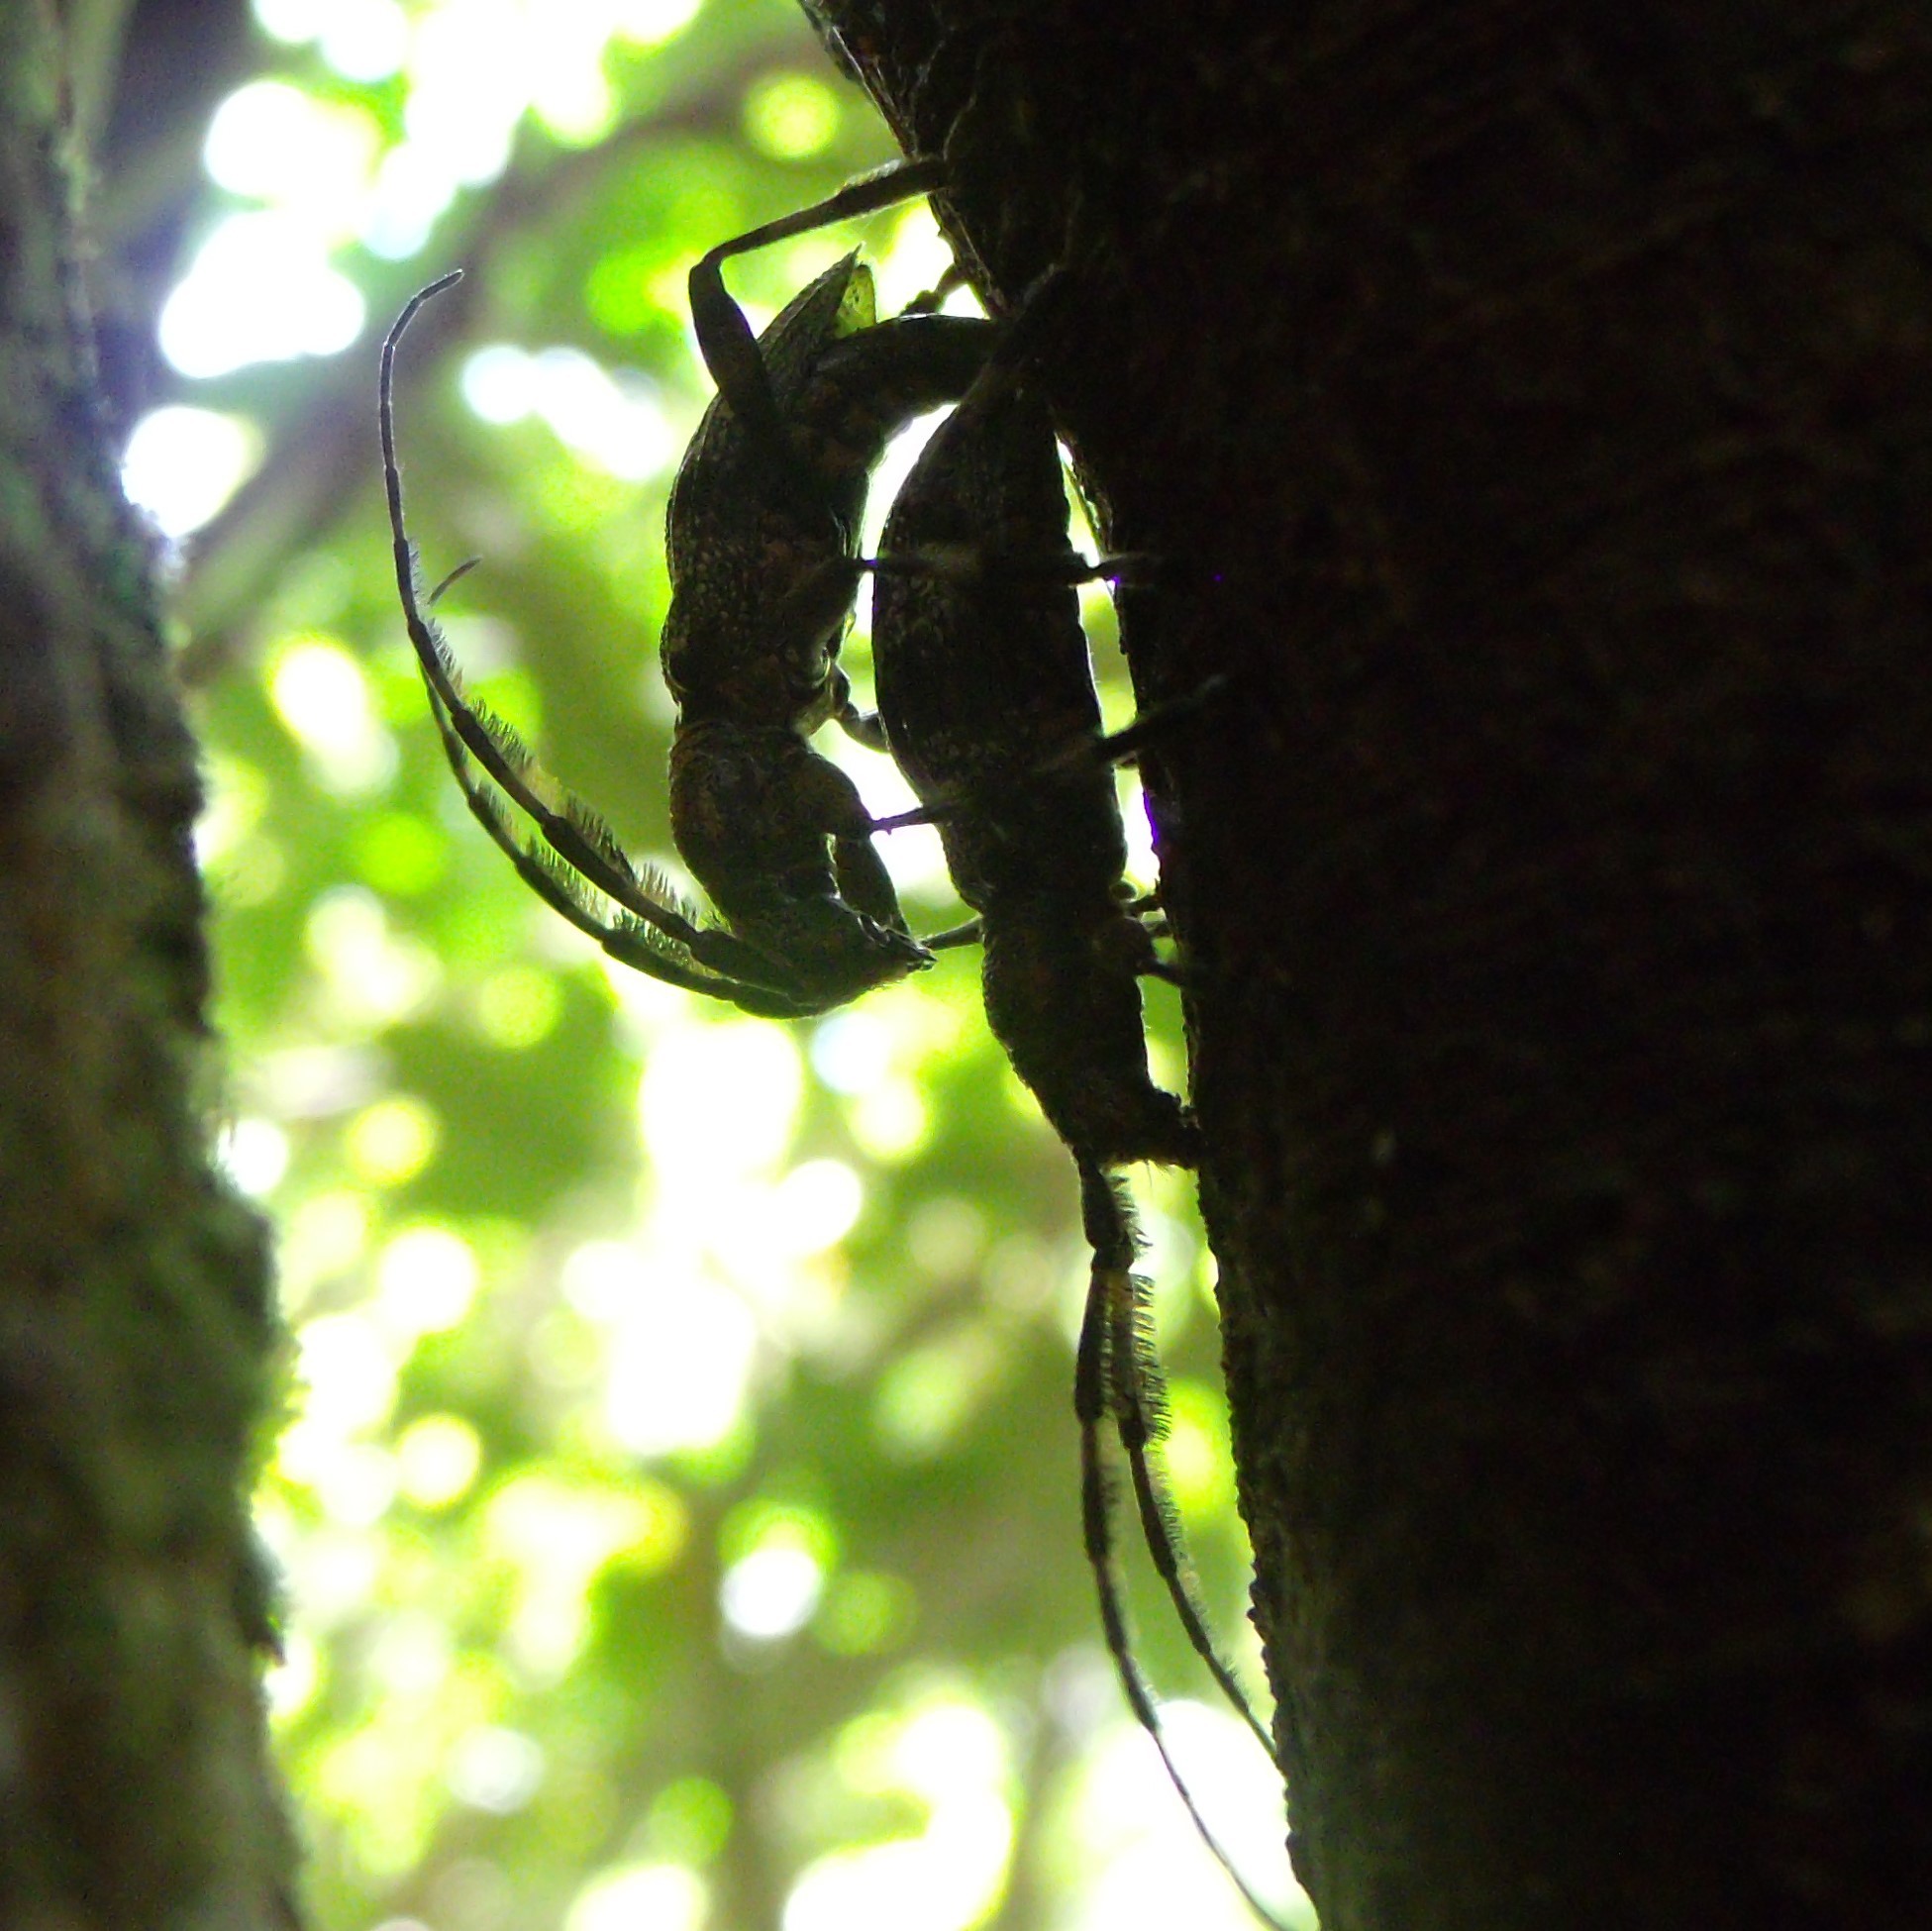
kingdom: Animalia
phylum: Arthropoda
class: Insecta
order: Coleoptera
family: Cerambycidae
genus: Hexatricha
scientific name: Hexatricha pulverulenta
